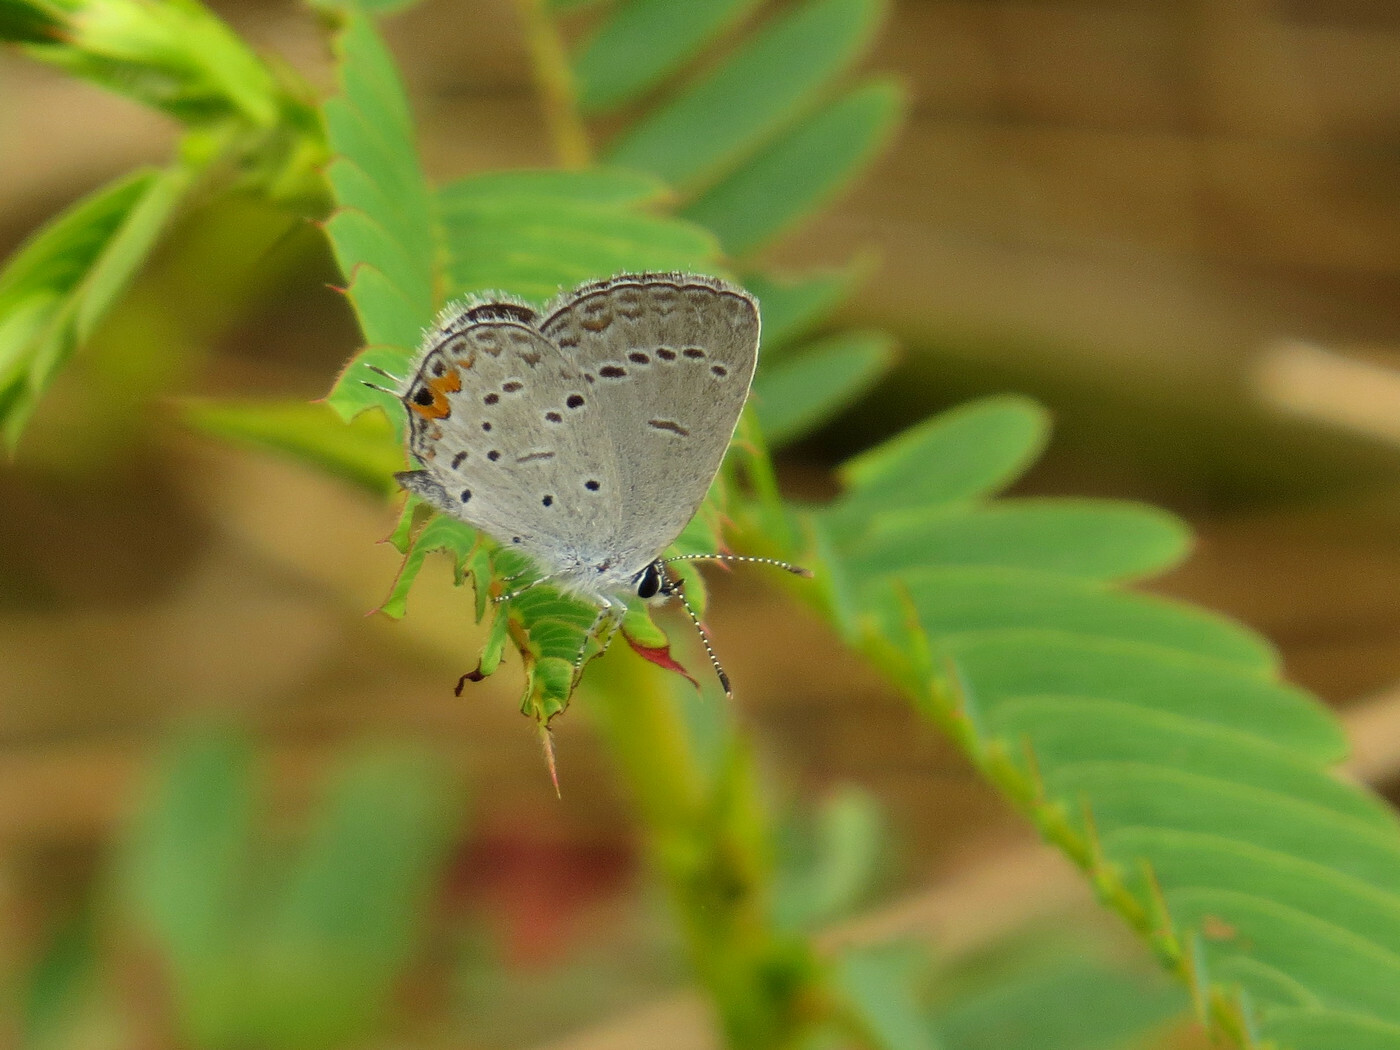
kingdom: Animalia
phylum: Arthropoda
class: Insecta
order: Lepidoptera
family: Lycaenidae
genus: Elkalyce
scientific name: Elkalyce comyntas
